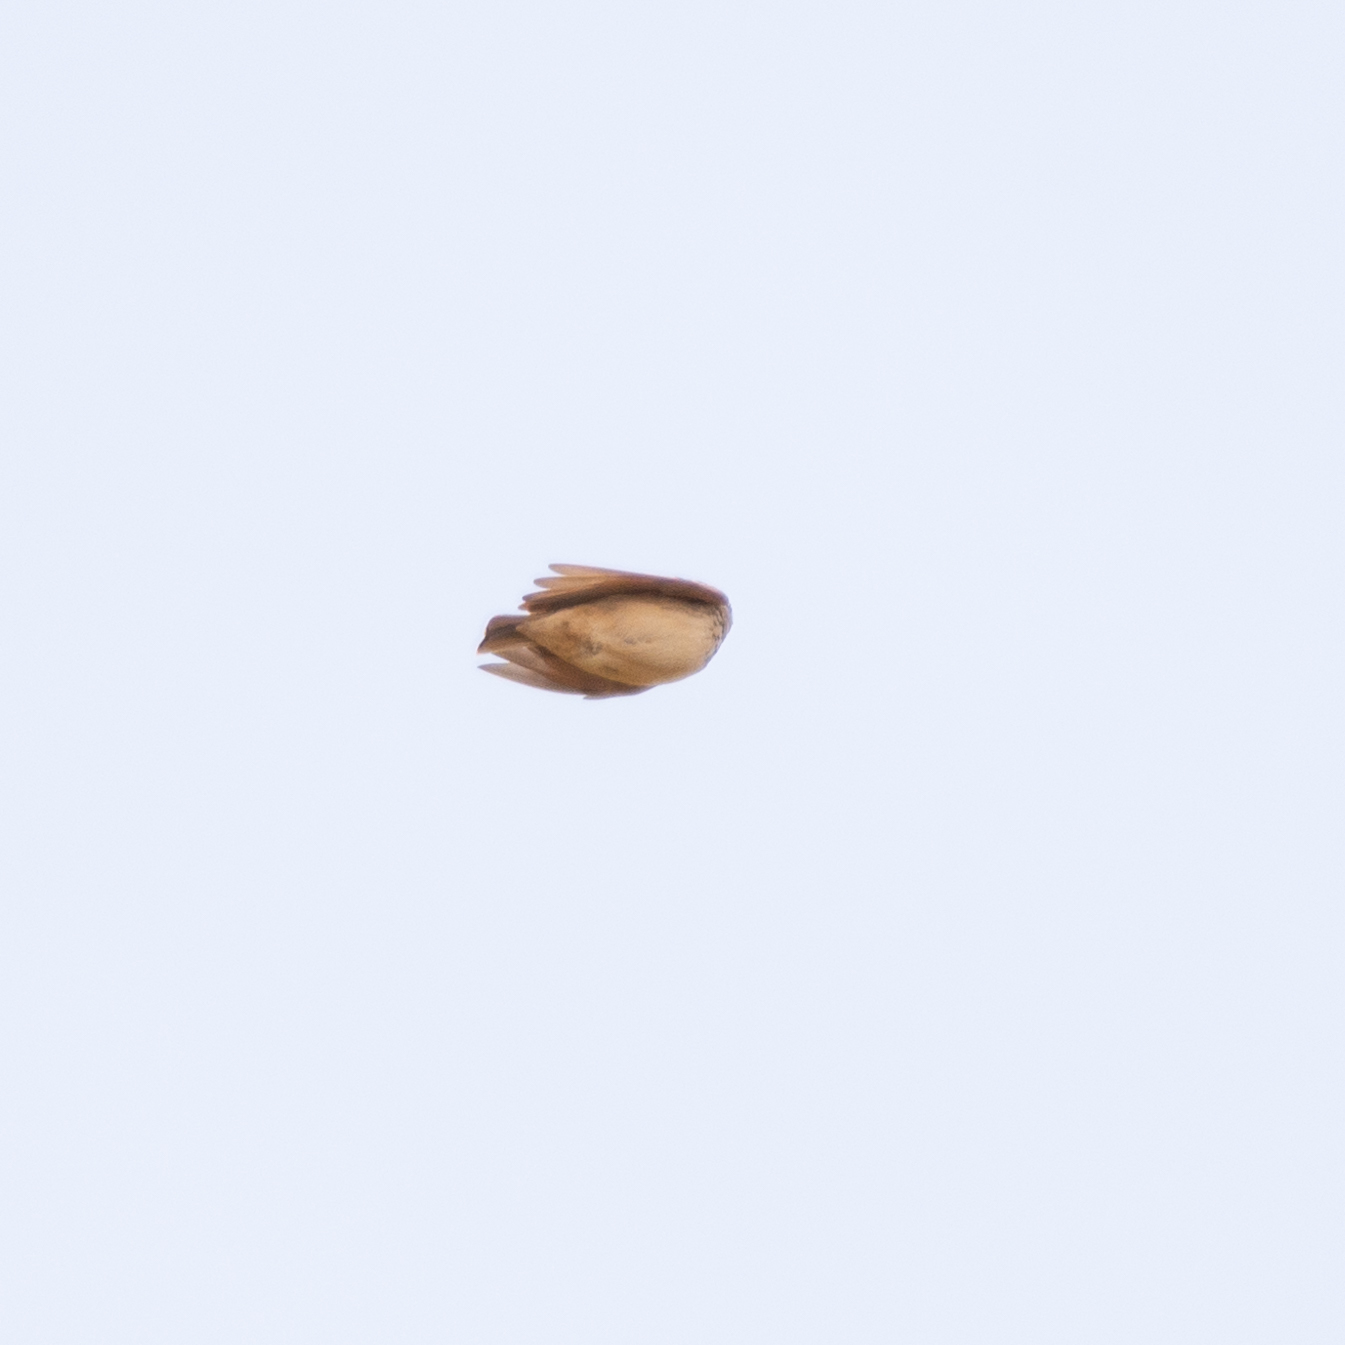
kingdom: Animalia
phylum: Chordata
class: Aves
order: Passeriformes
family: Alaudidae
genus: Galerida
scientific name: Galerida cristata
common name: Crested lark
